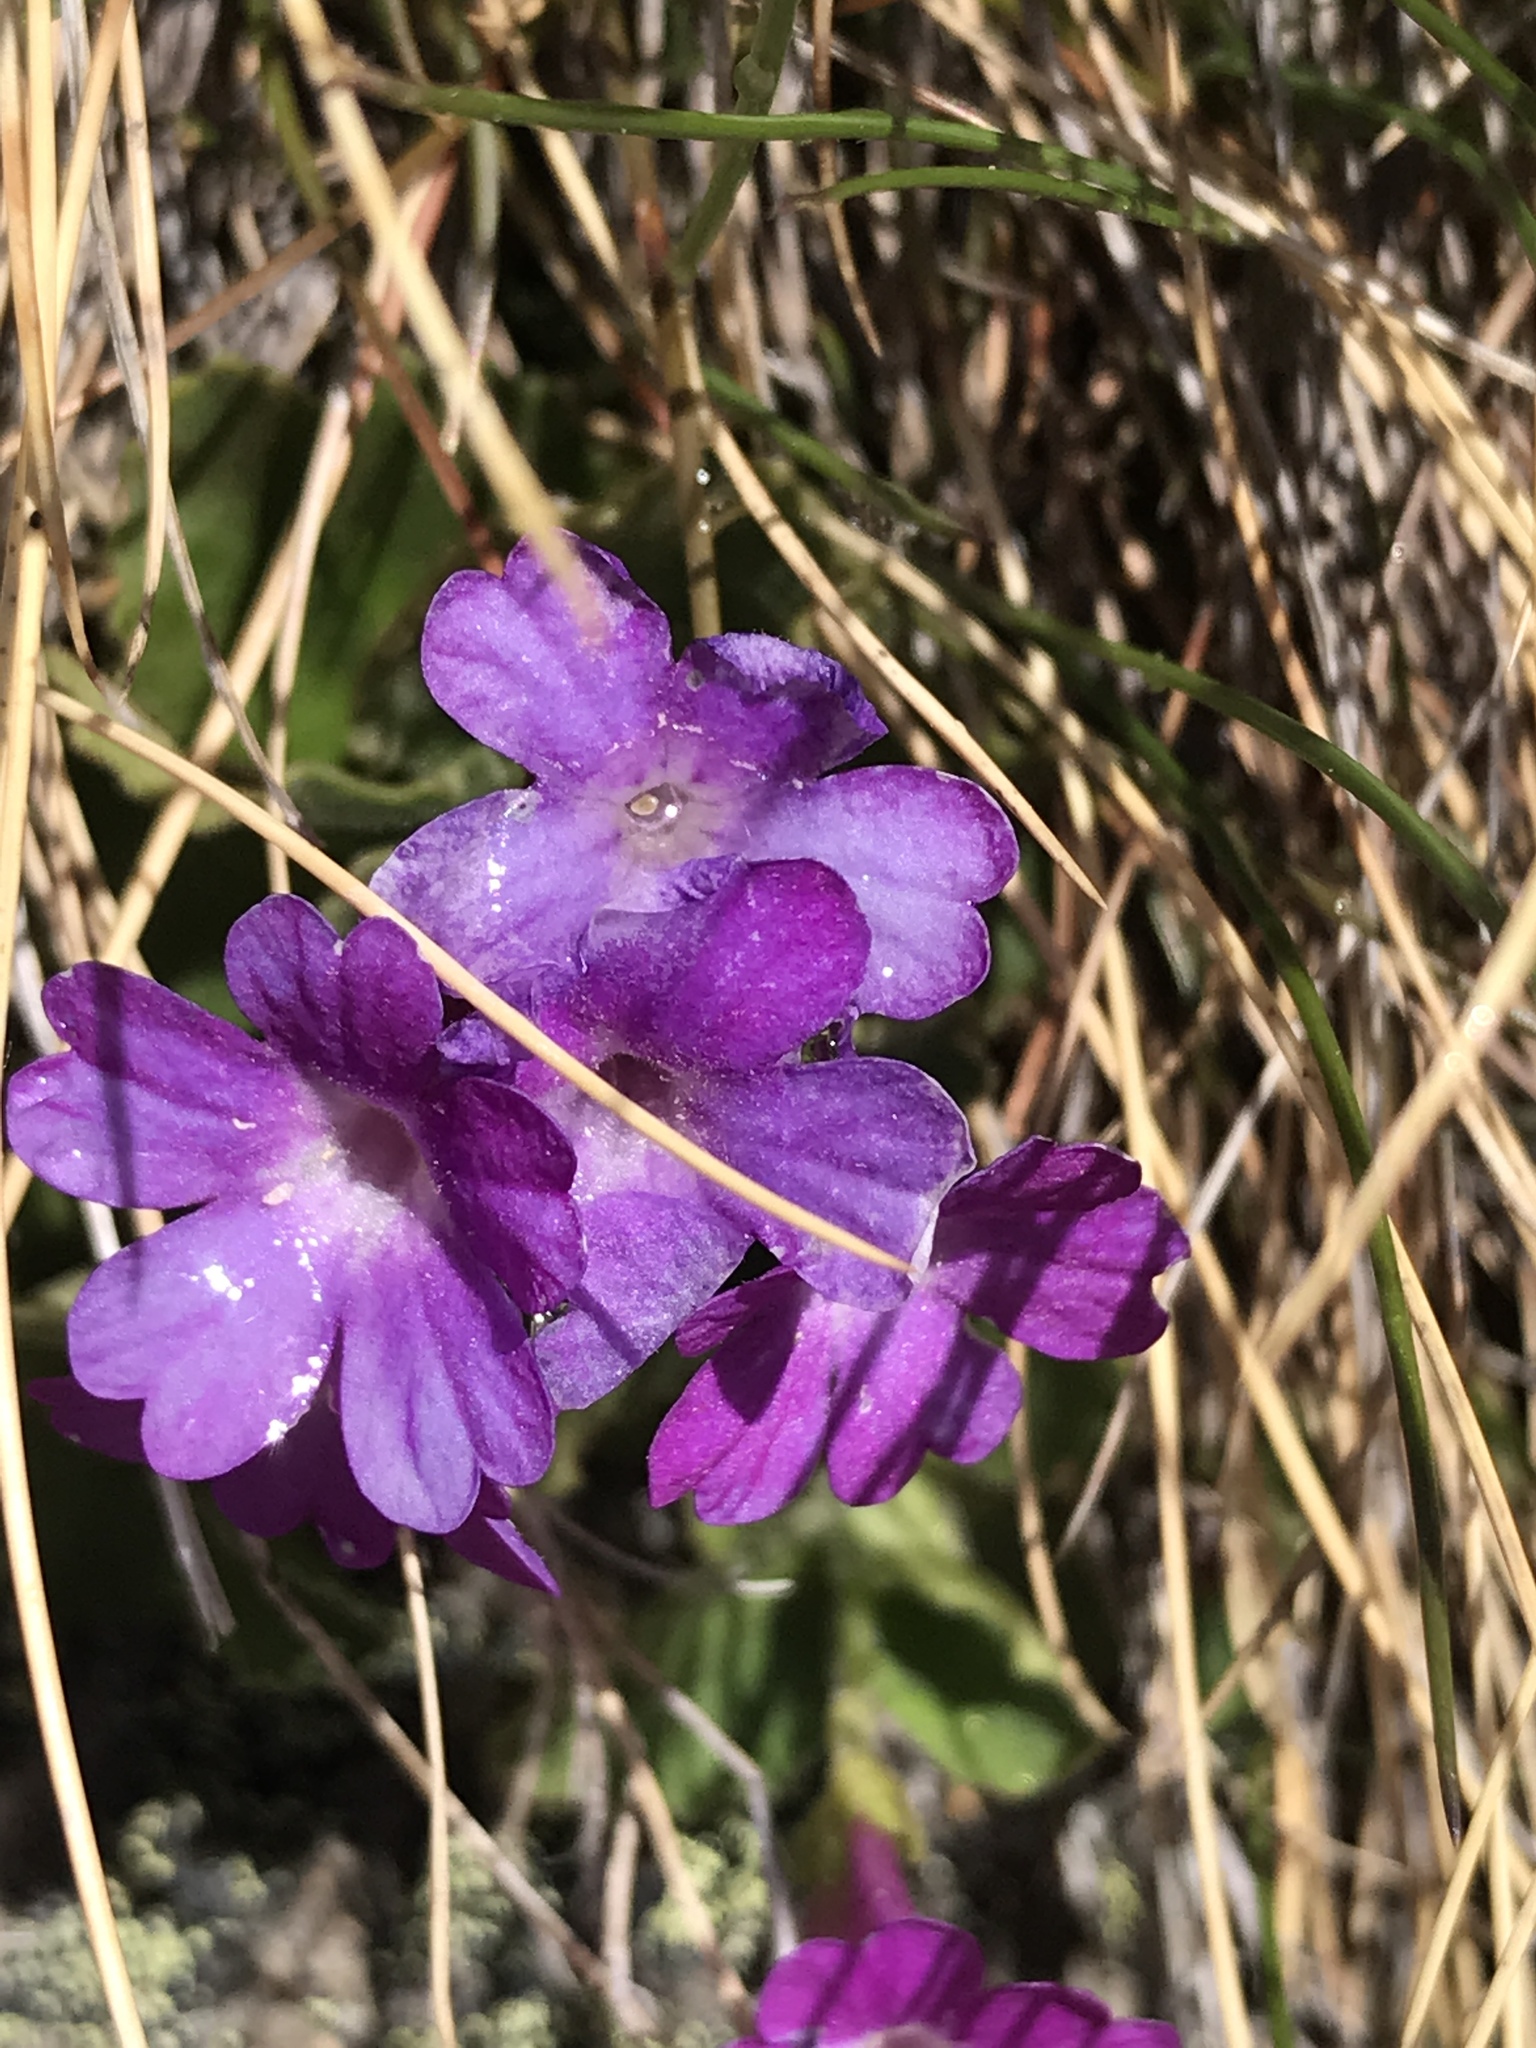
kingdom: Plantae
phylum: Tracheophyta
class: Magnoliopsida
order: Ericales
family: Primulaceae
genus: Primula
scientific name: Primula hirsuta
